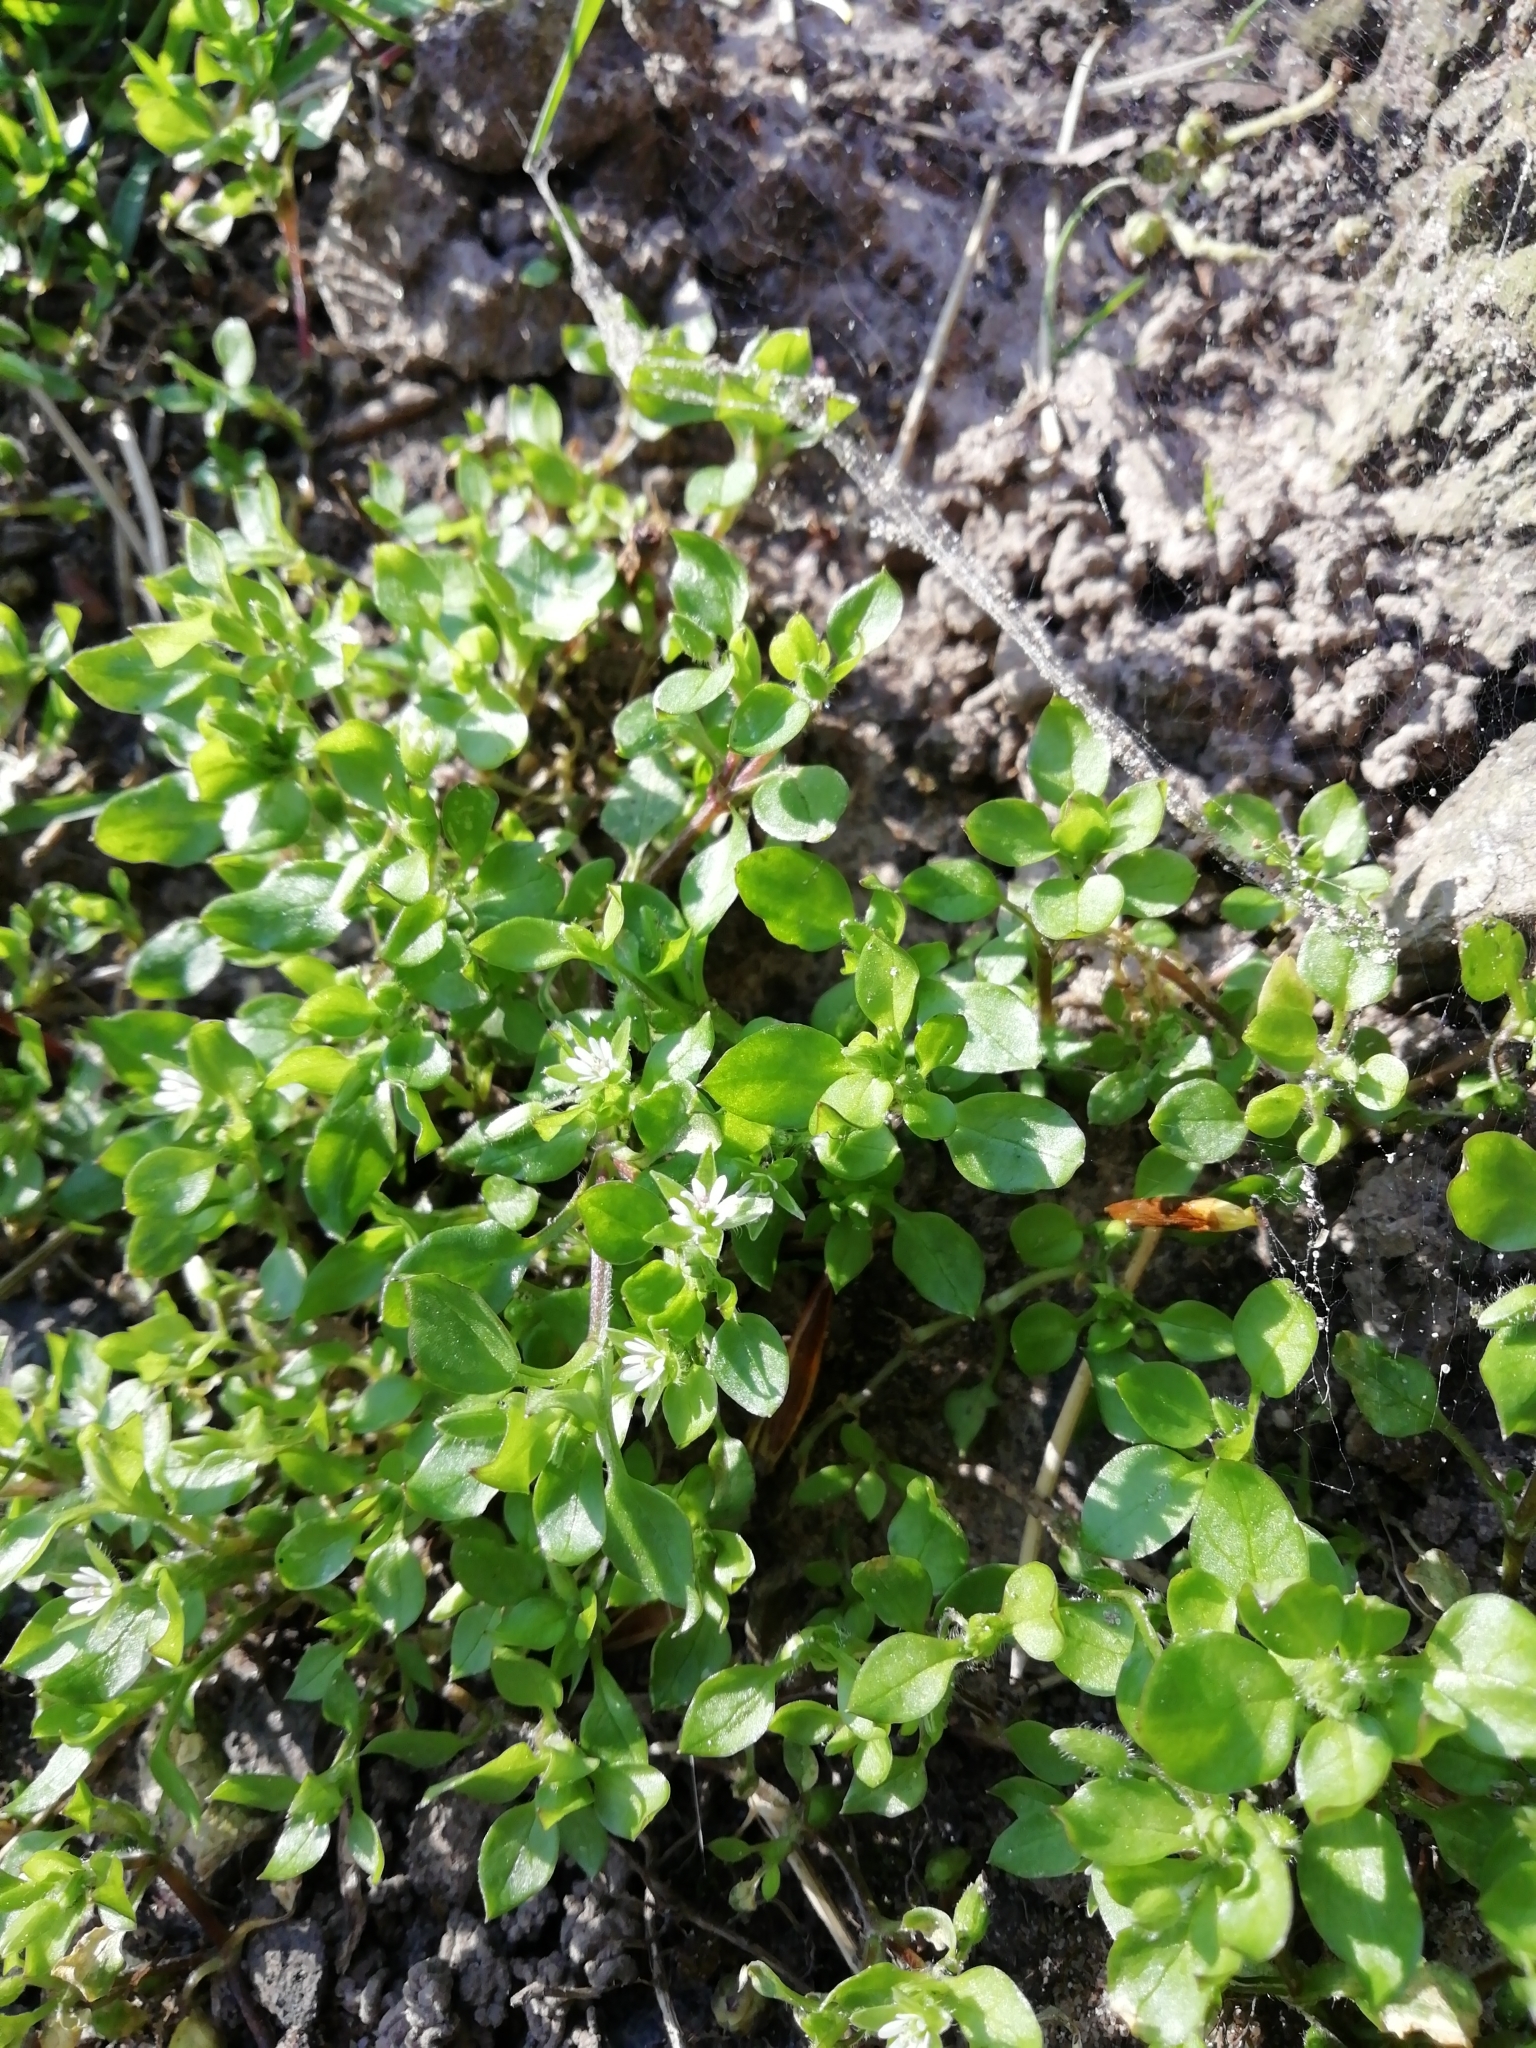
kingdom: Plantae
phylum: Tracheophyta
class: Magnoliopsida
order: Caryophyllales
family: Caryophyllaceae
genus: Stellaria
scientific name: Stellaria media
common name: Common chickweed
